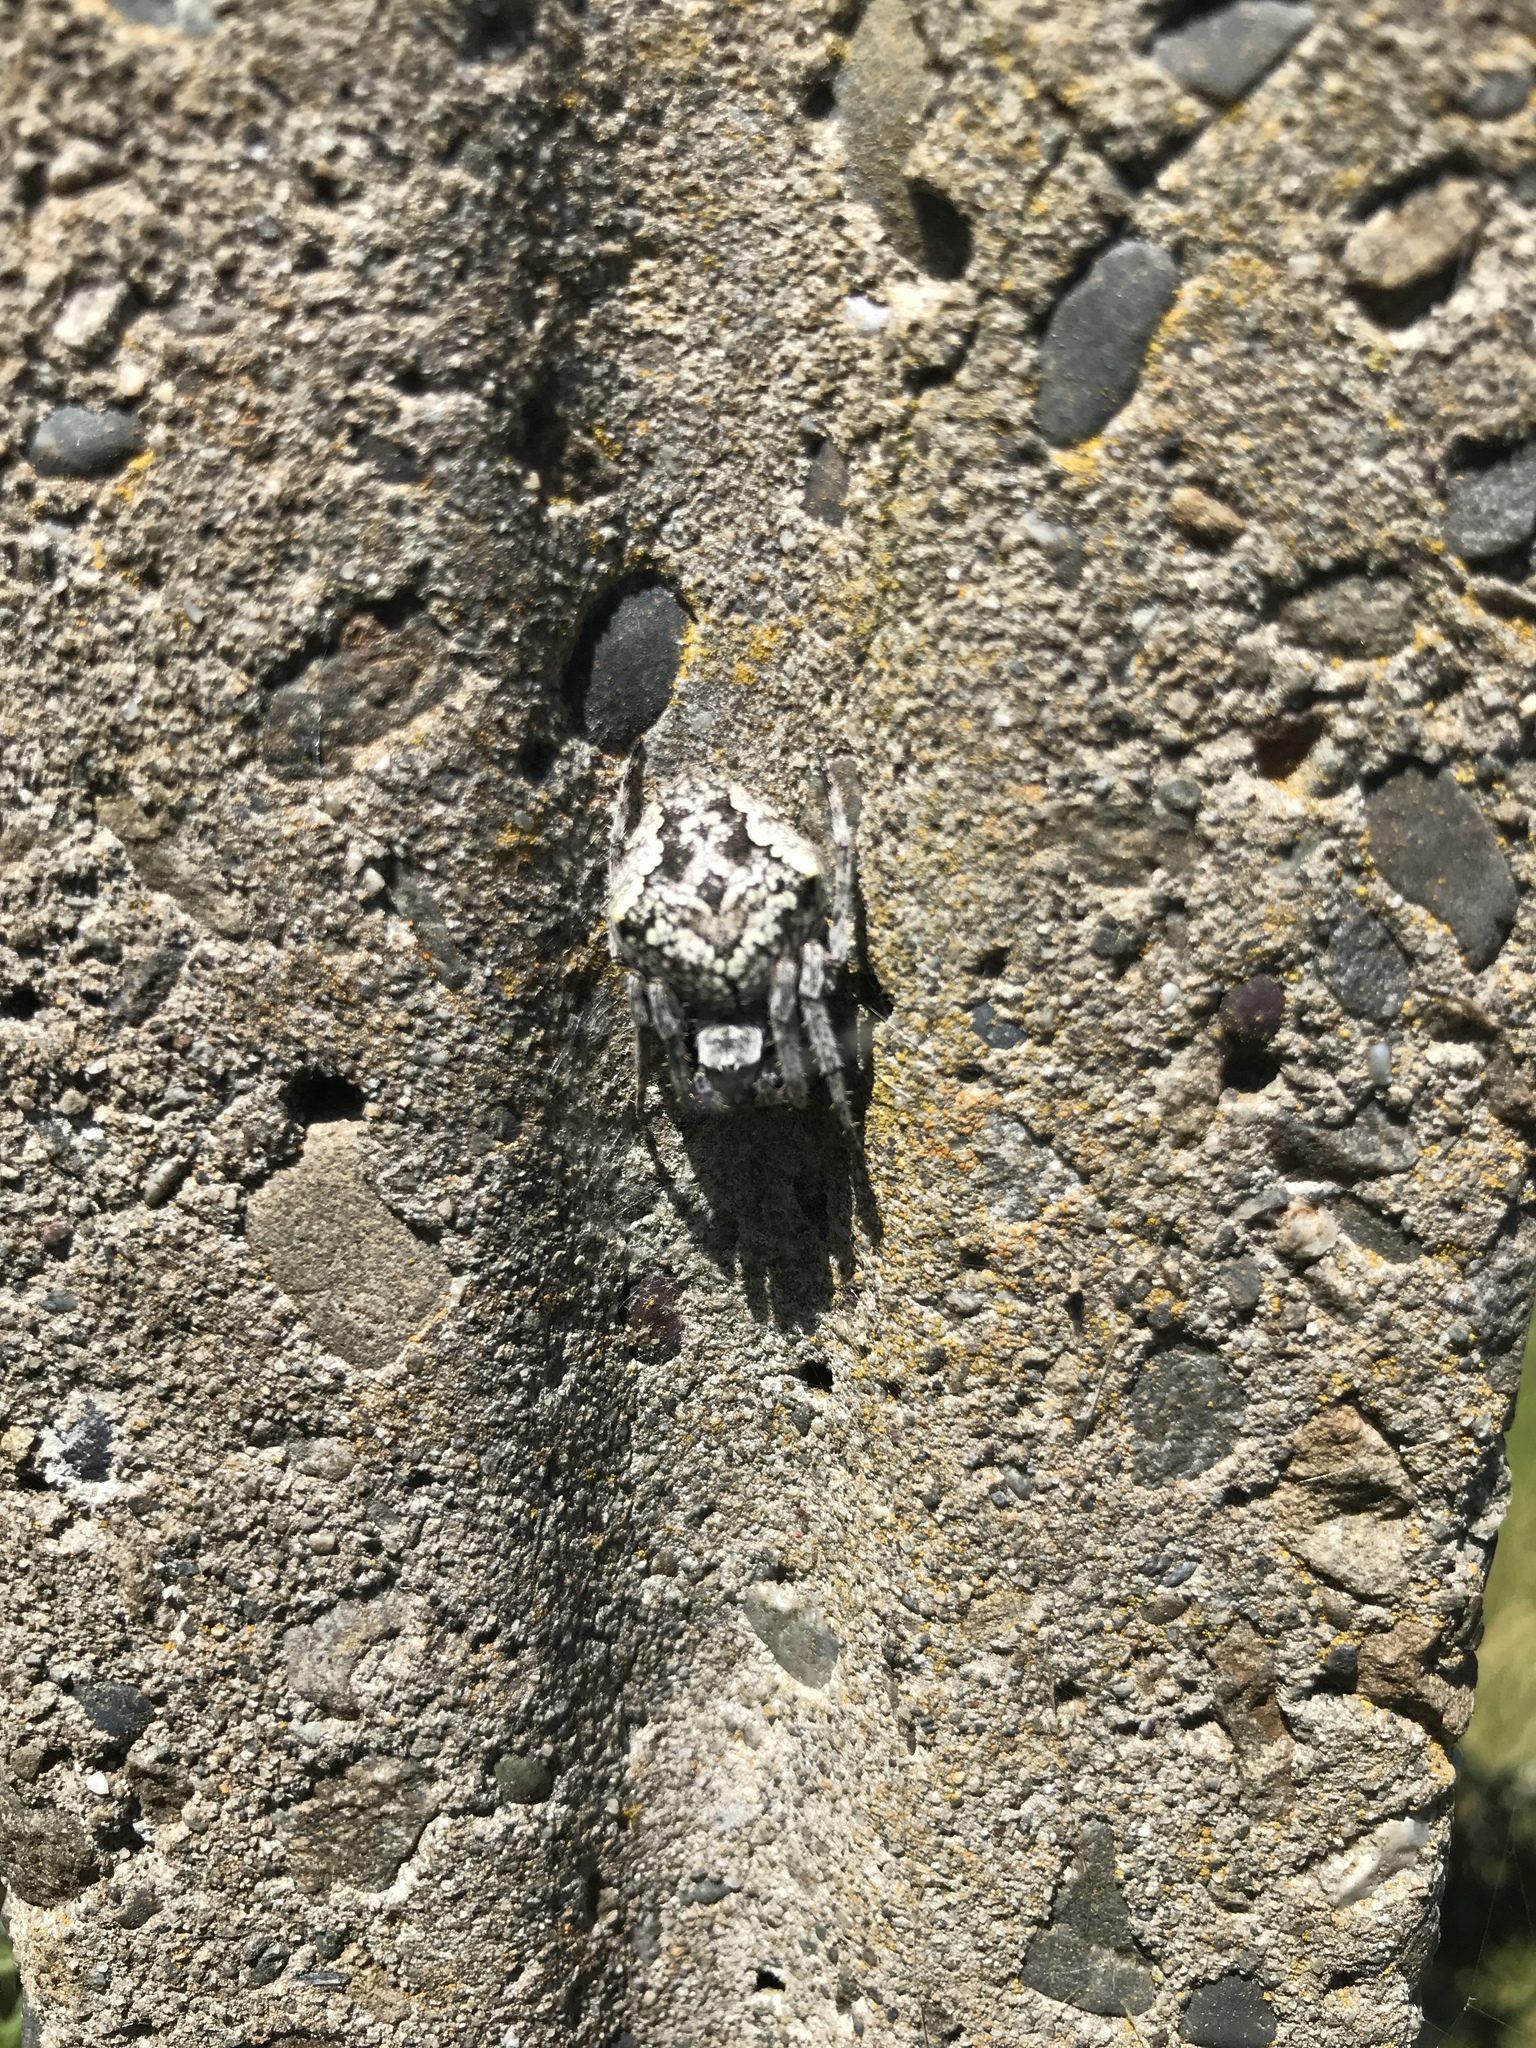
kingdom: Animalia
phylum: Arthropoda
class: Arachnida
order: Araneae
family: Araneidae
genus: Eriophora
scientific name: Eriophora pustulosa
